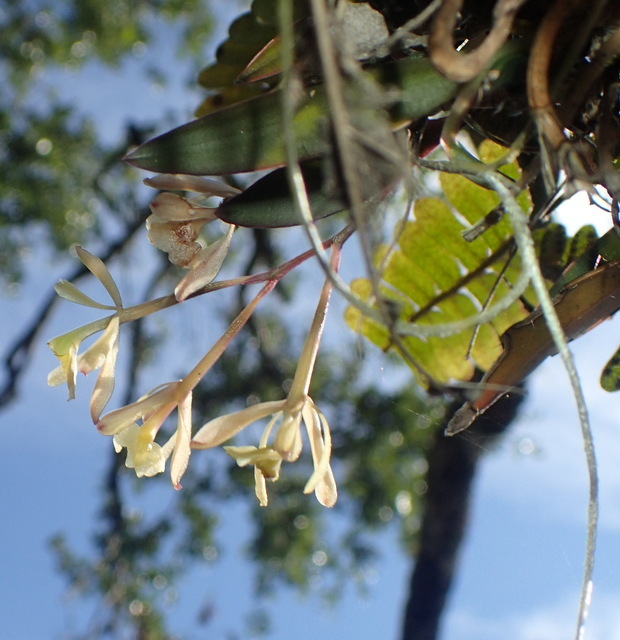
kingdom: Plantae
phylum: Tracheophyta
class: Liliopsida
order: Asparagales
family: Orchidaceae
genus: Epidendrum
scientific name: Epidendrum conopseum
